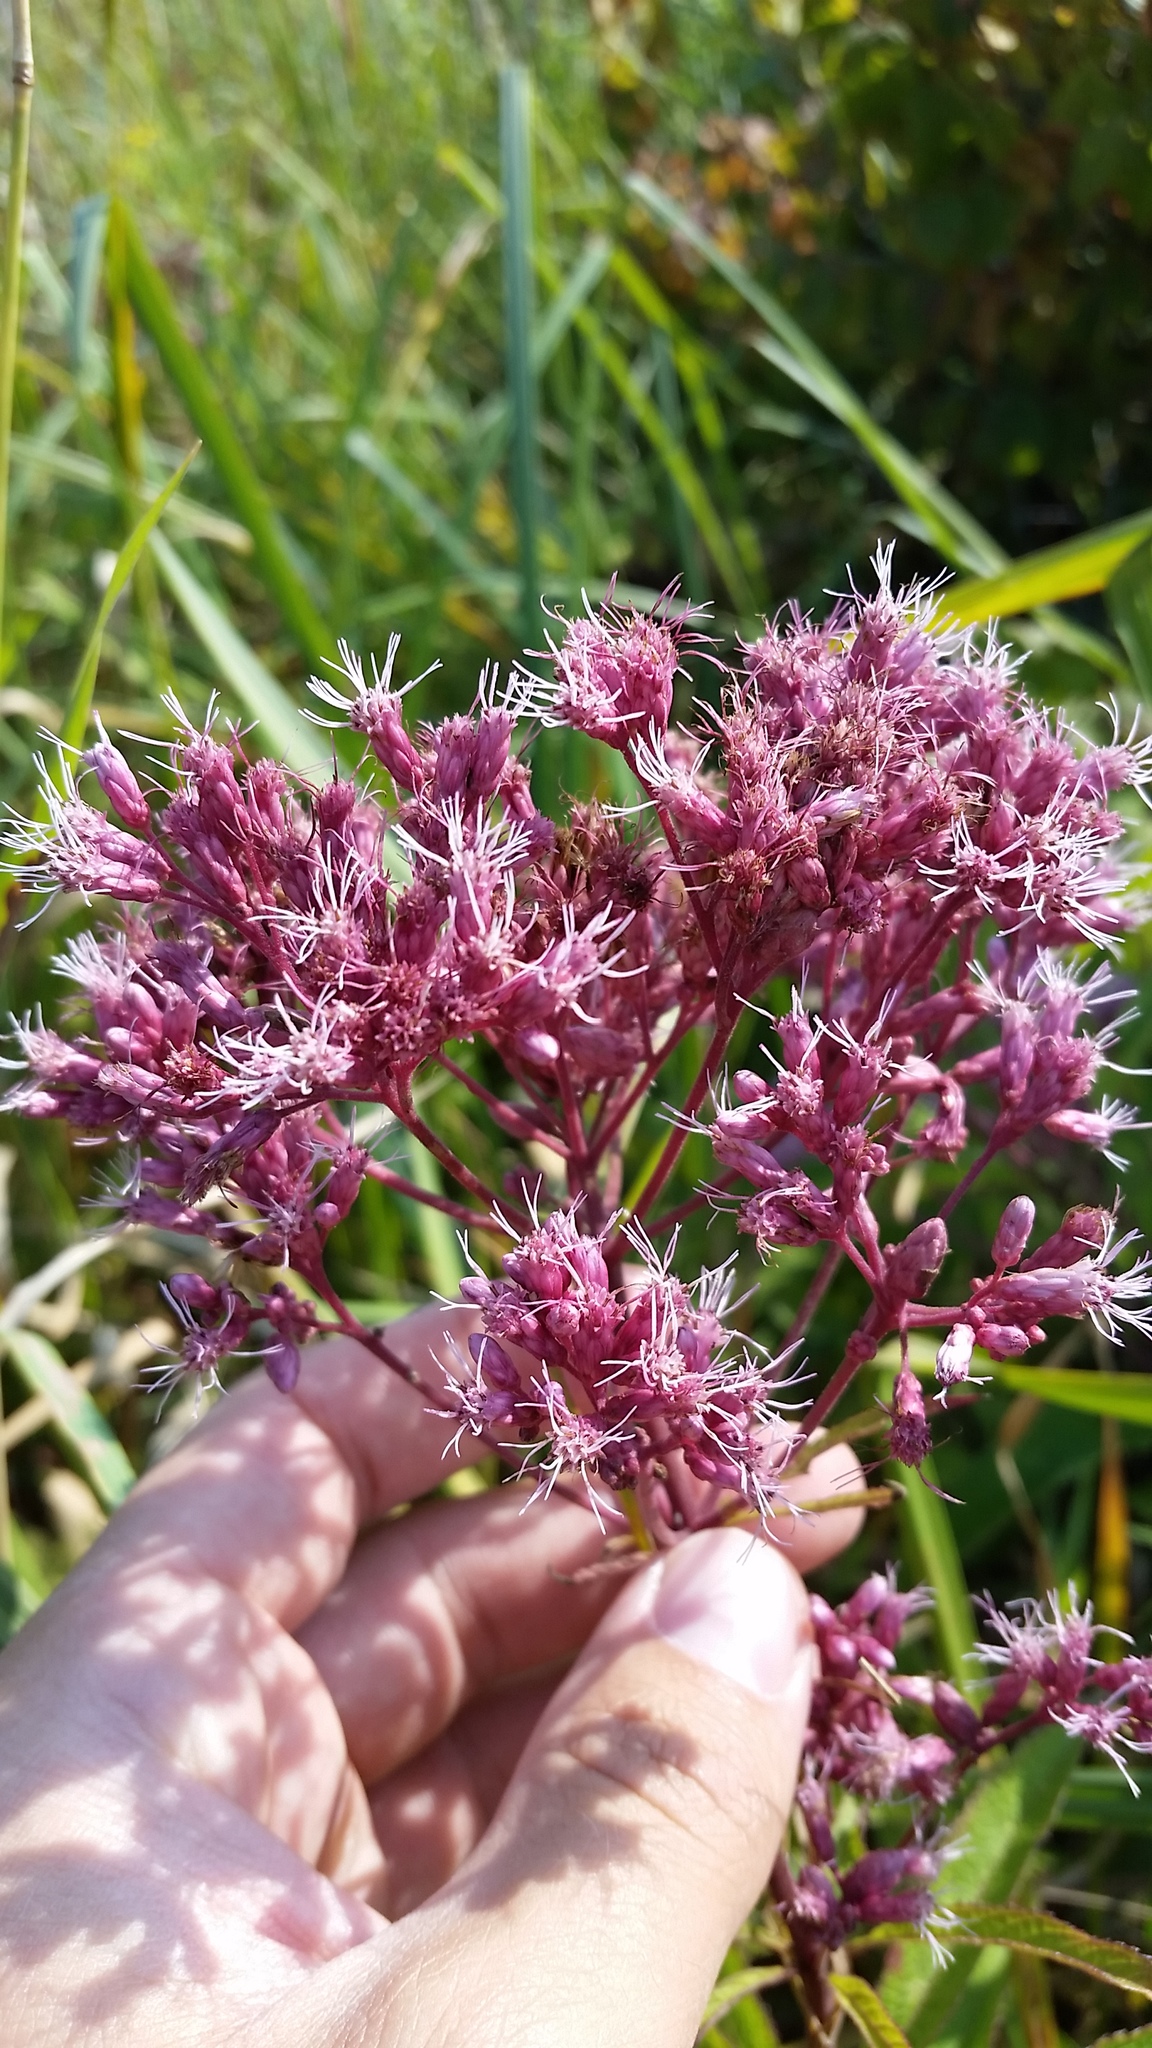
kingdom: Plantae
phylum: Tracheophyta
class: Magnoliopsida
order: Asterales
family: Asteraceae
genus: Eutrochium
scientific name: Eutrochium maculatum
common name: Spotted joe pye weed
